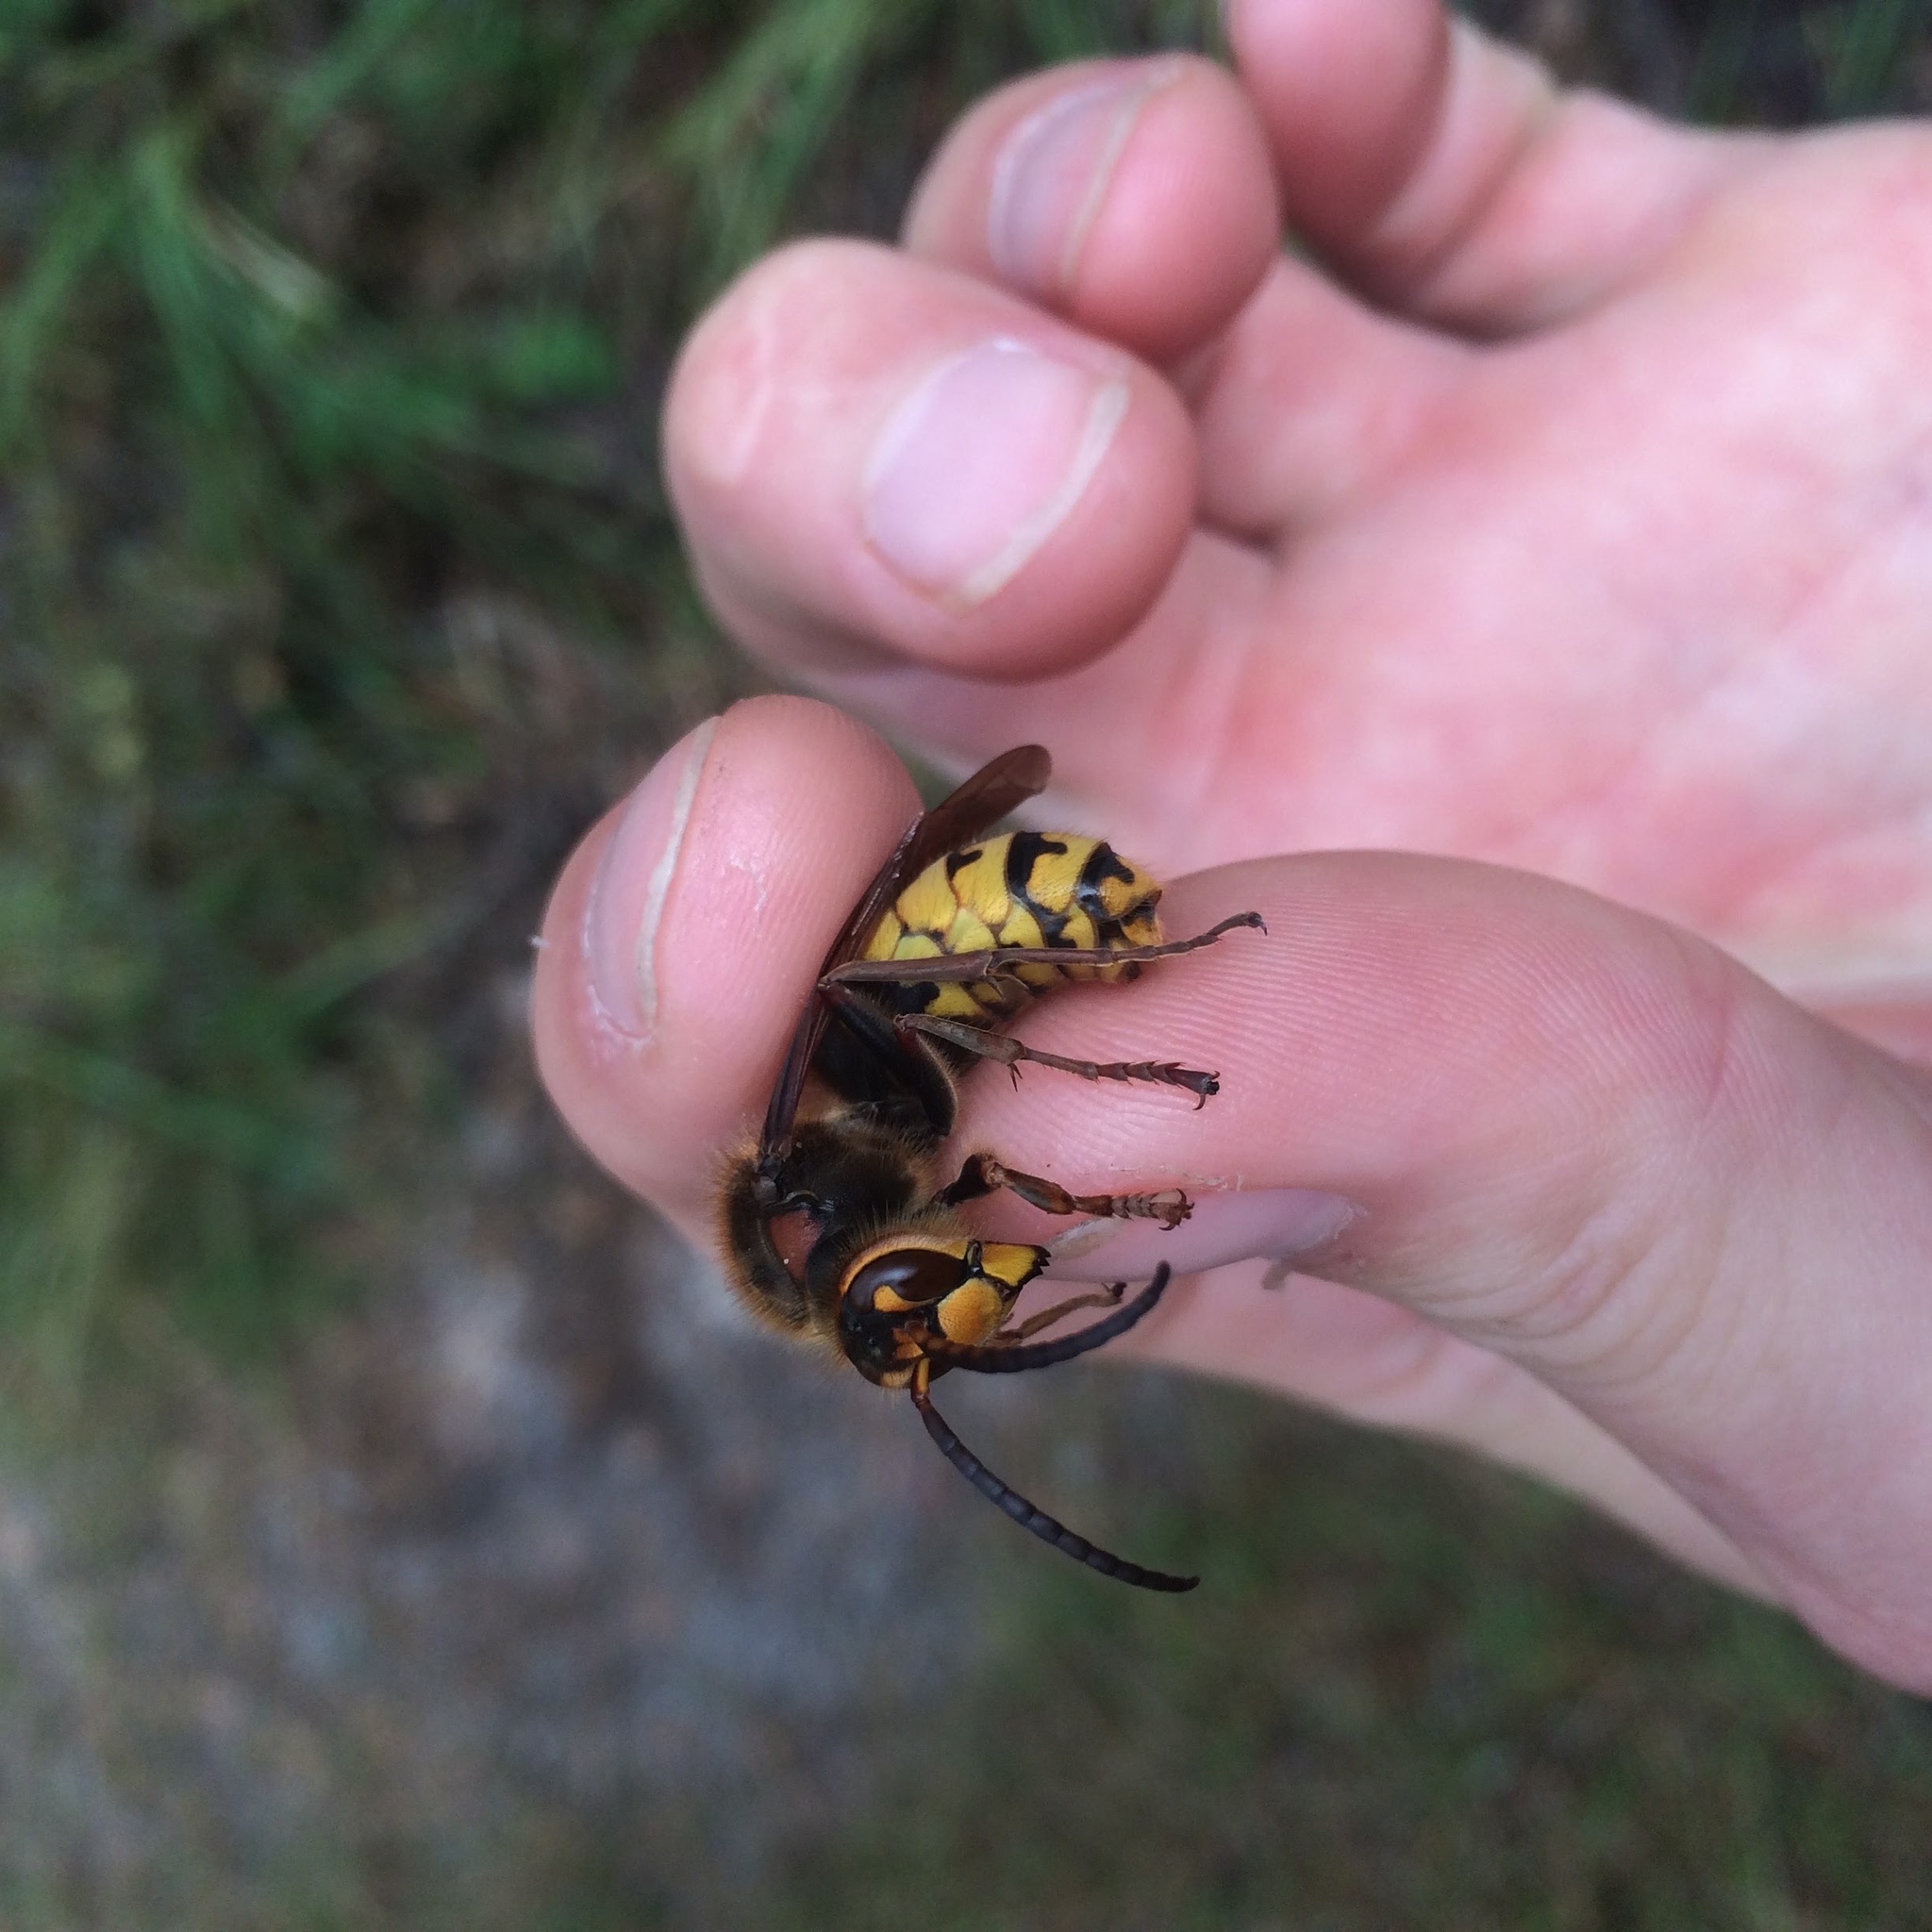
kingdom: Animalia
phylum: Arthropoda
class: Insecta
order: Hymenoptera
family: Vespidae
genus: Vespa
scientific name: Vespa crabro
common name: Hornet
